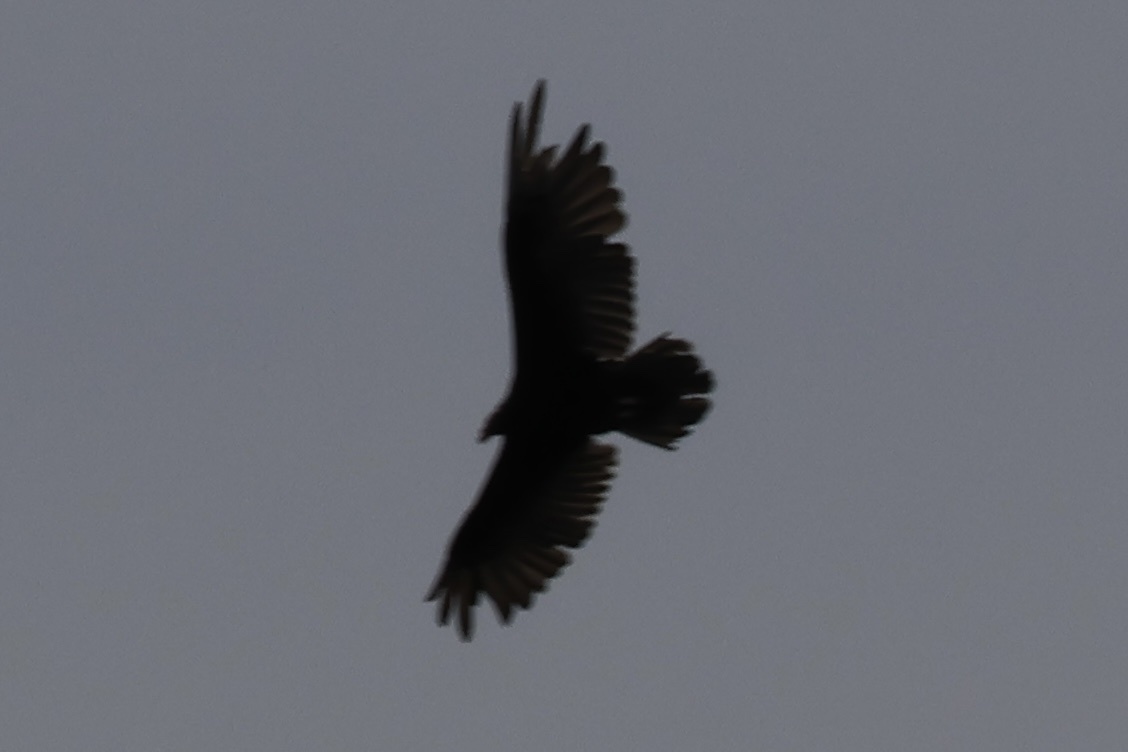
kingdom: Animalia
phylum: Chordata
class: Aves
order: Accipitriformes
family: Cathartidae
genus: Cathartes
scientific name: Cathartes aura
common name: Turkey vulture
